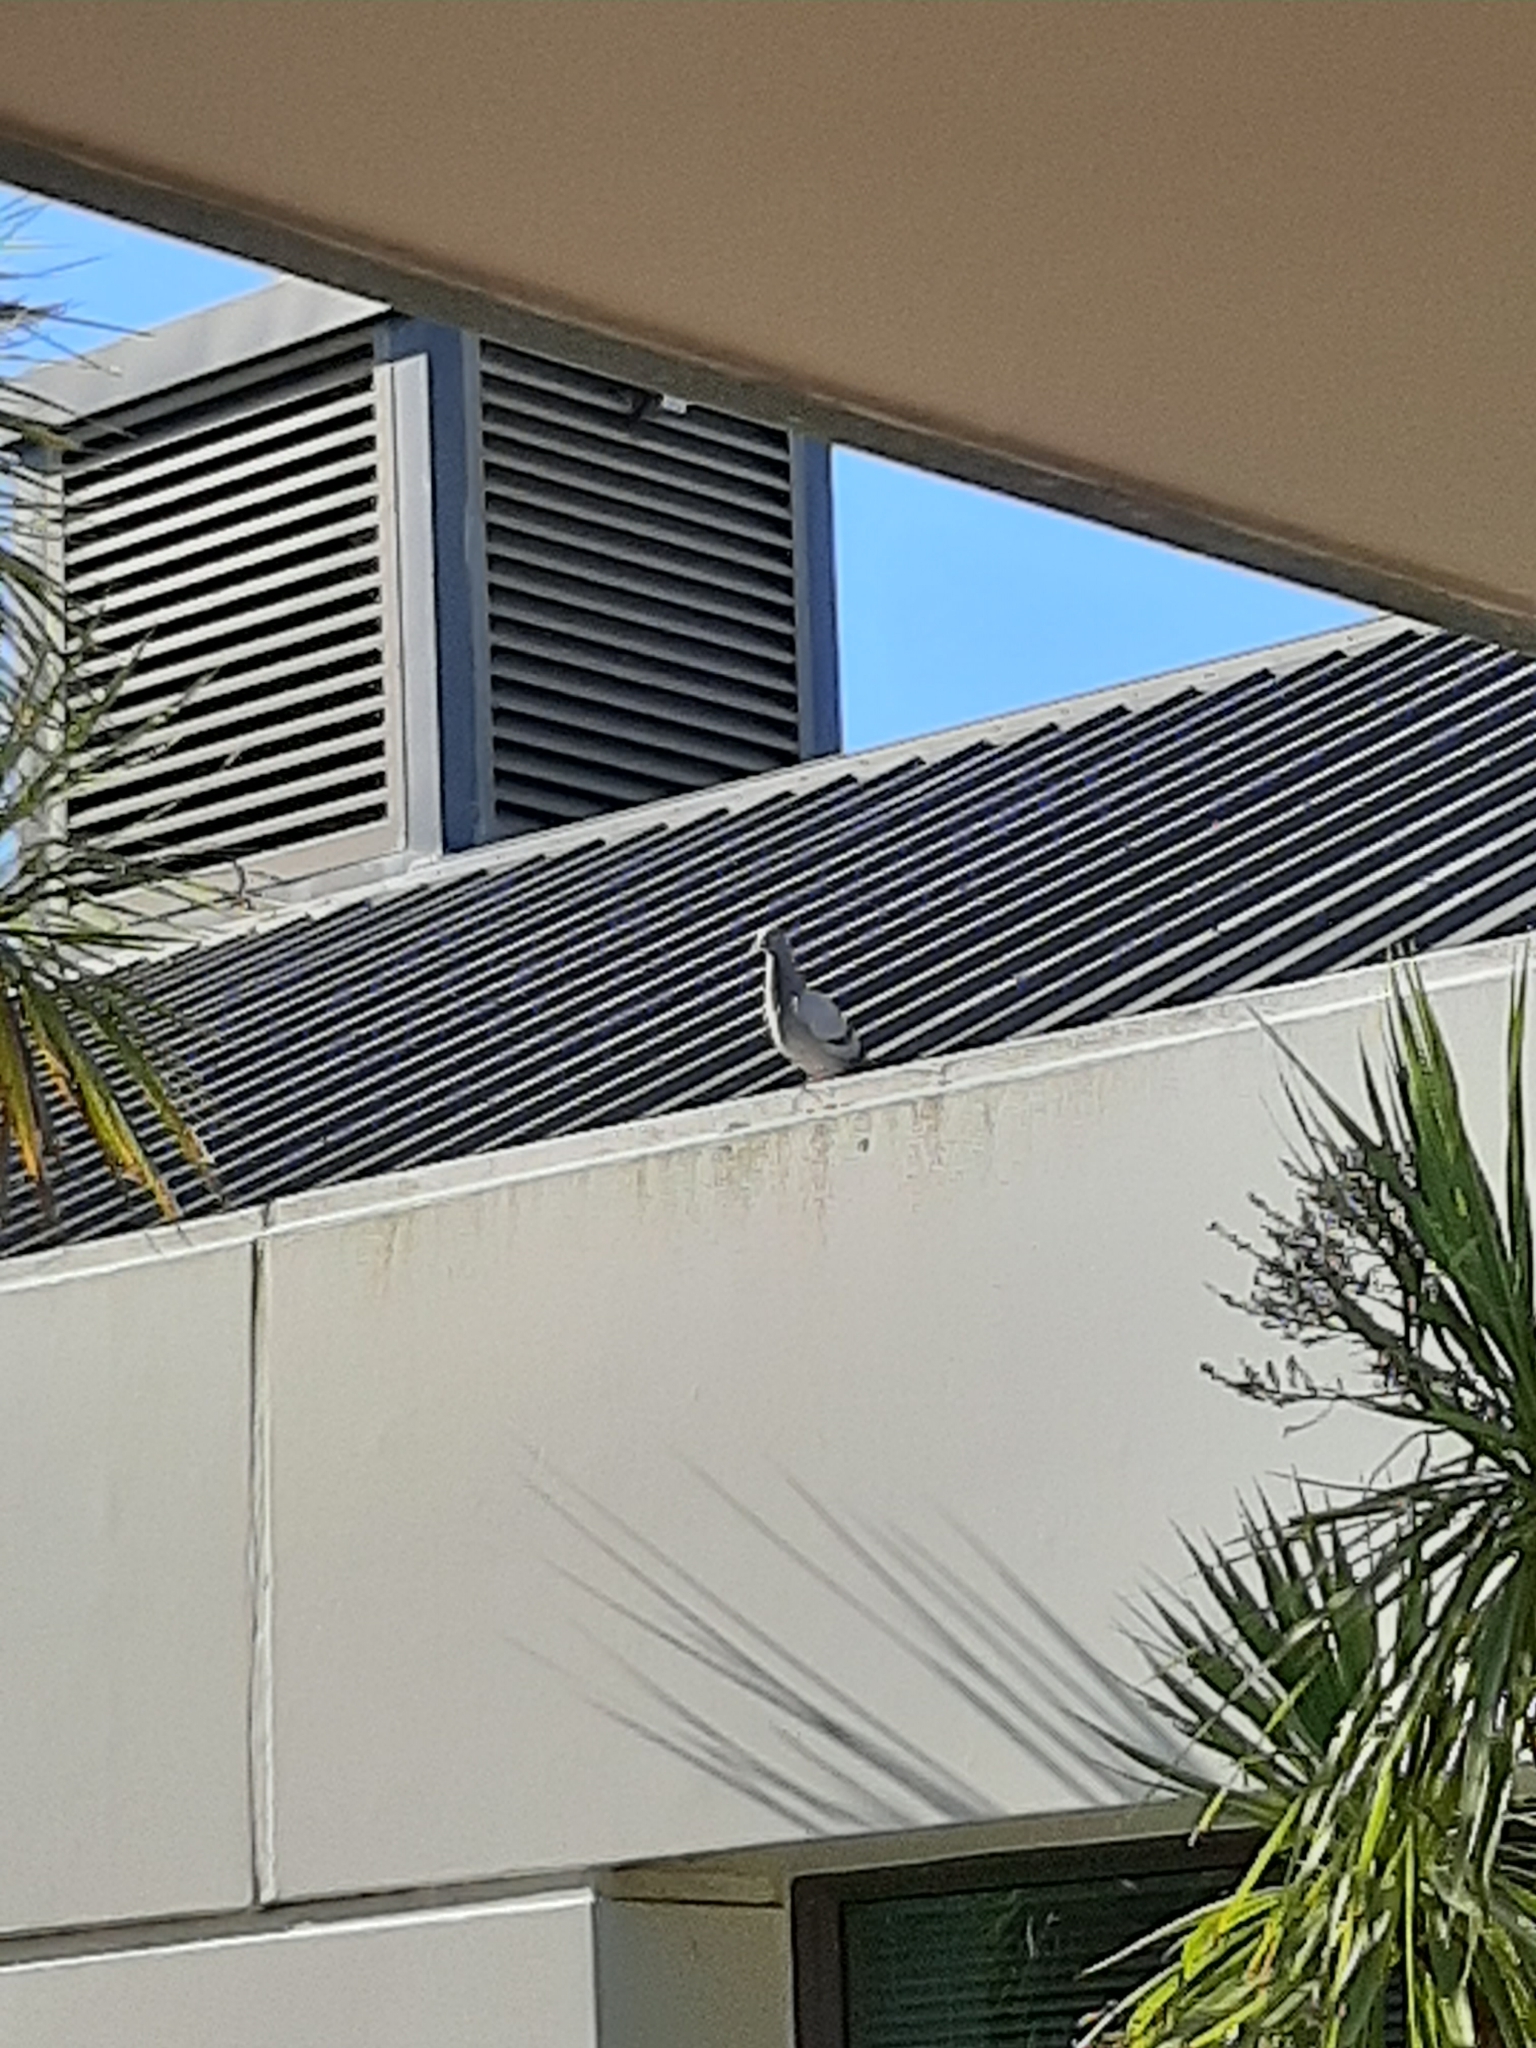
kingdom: Animalia
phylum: Chordata
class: Aves
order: Columbiformes
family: Columbidae
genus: Columba
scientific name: Columba livia
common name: Rock pigeon
